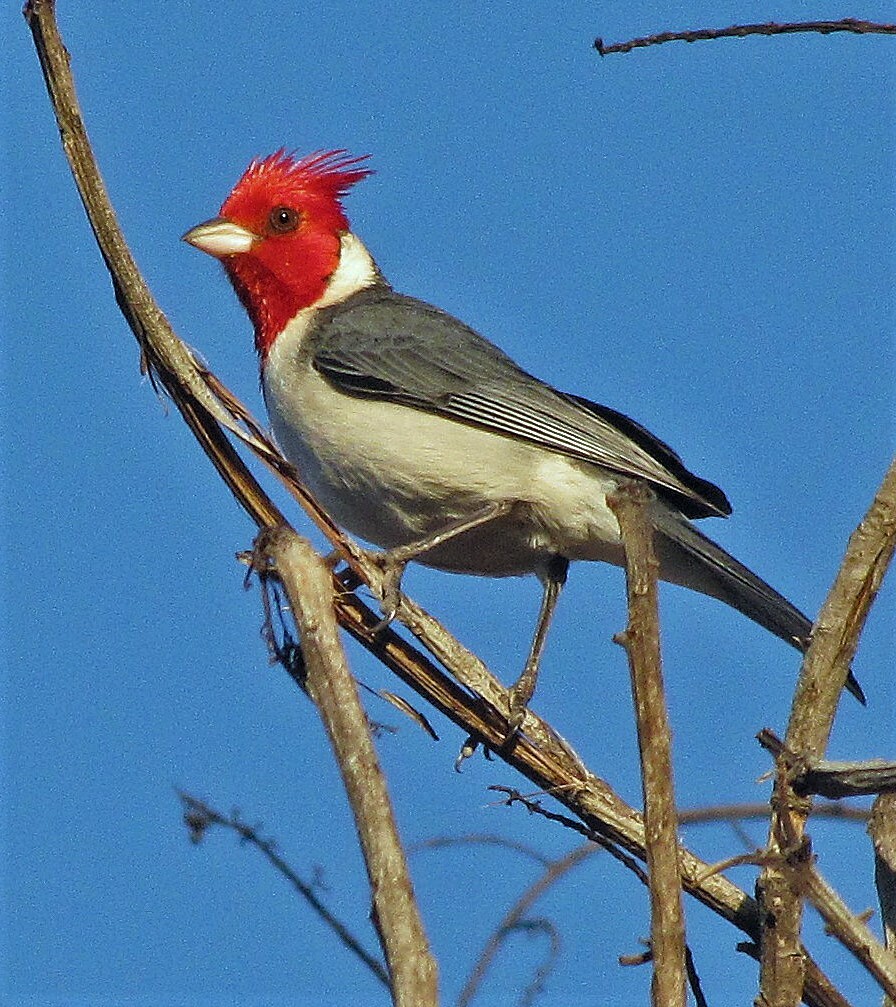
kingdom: Animalia
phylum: Chordata
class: Aves
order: Passeriformes
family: Thraupidae
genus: Paroaria
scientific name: Paroaria coronata
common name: Red-crested cardinal
